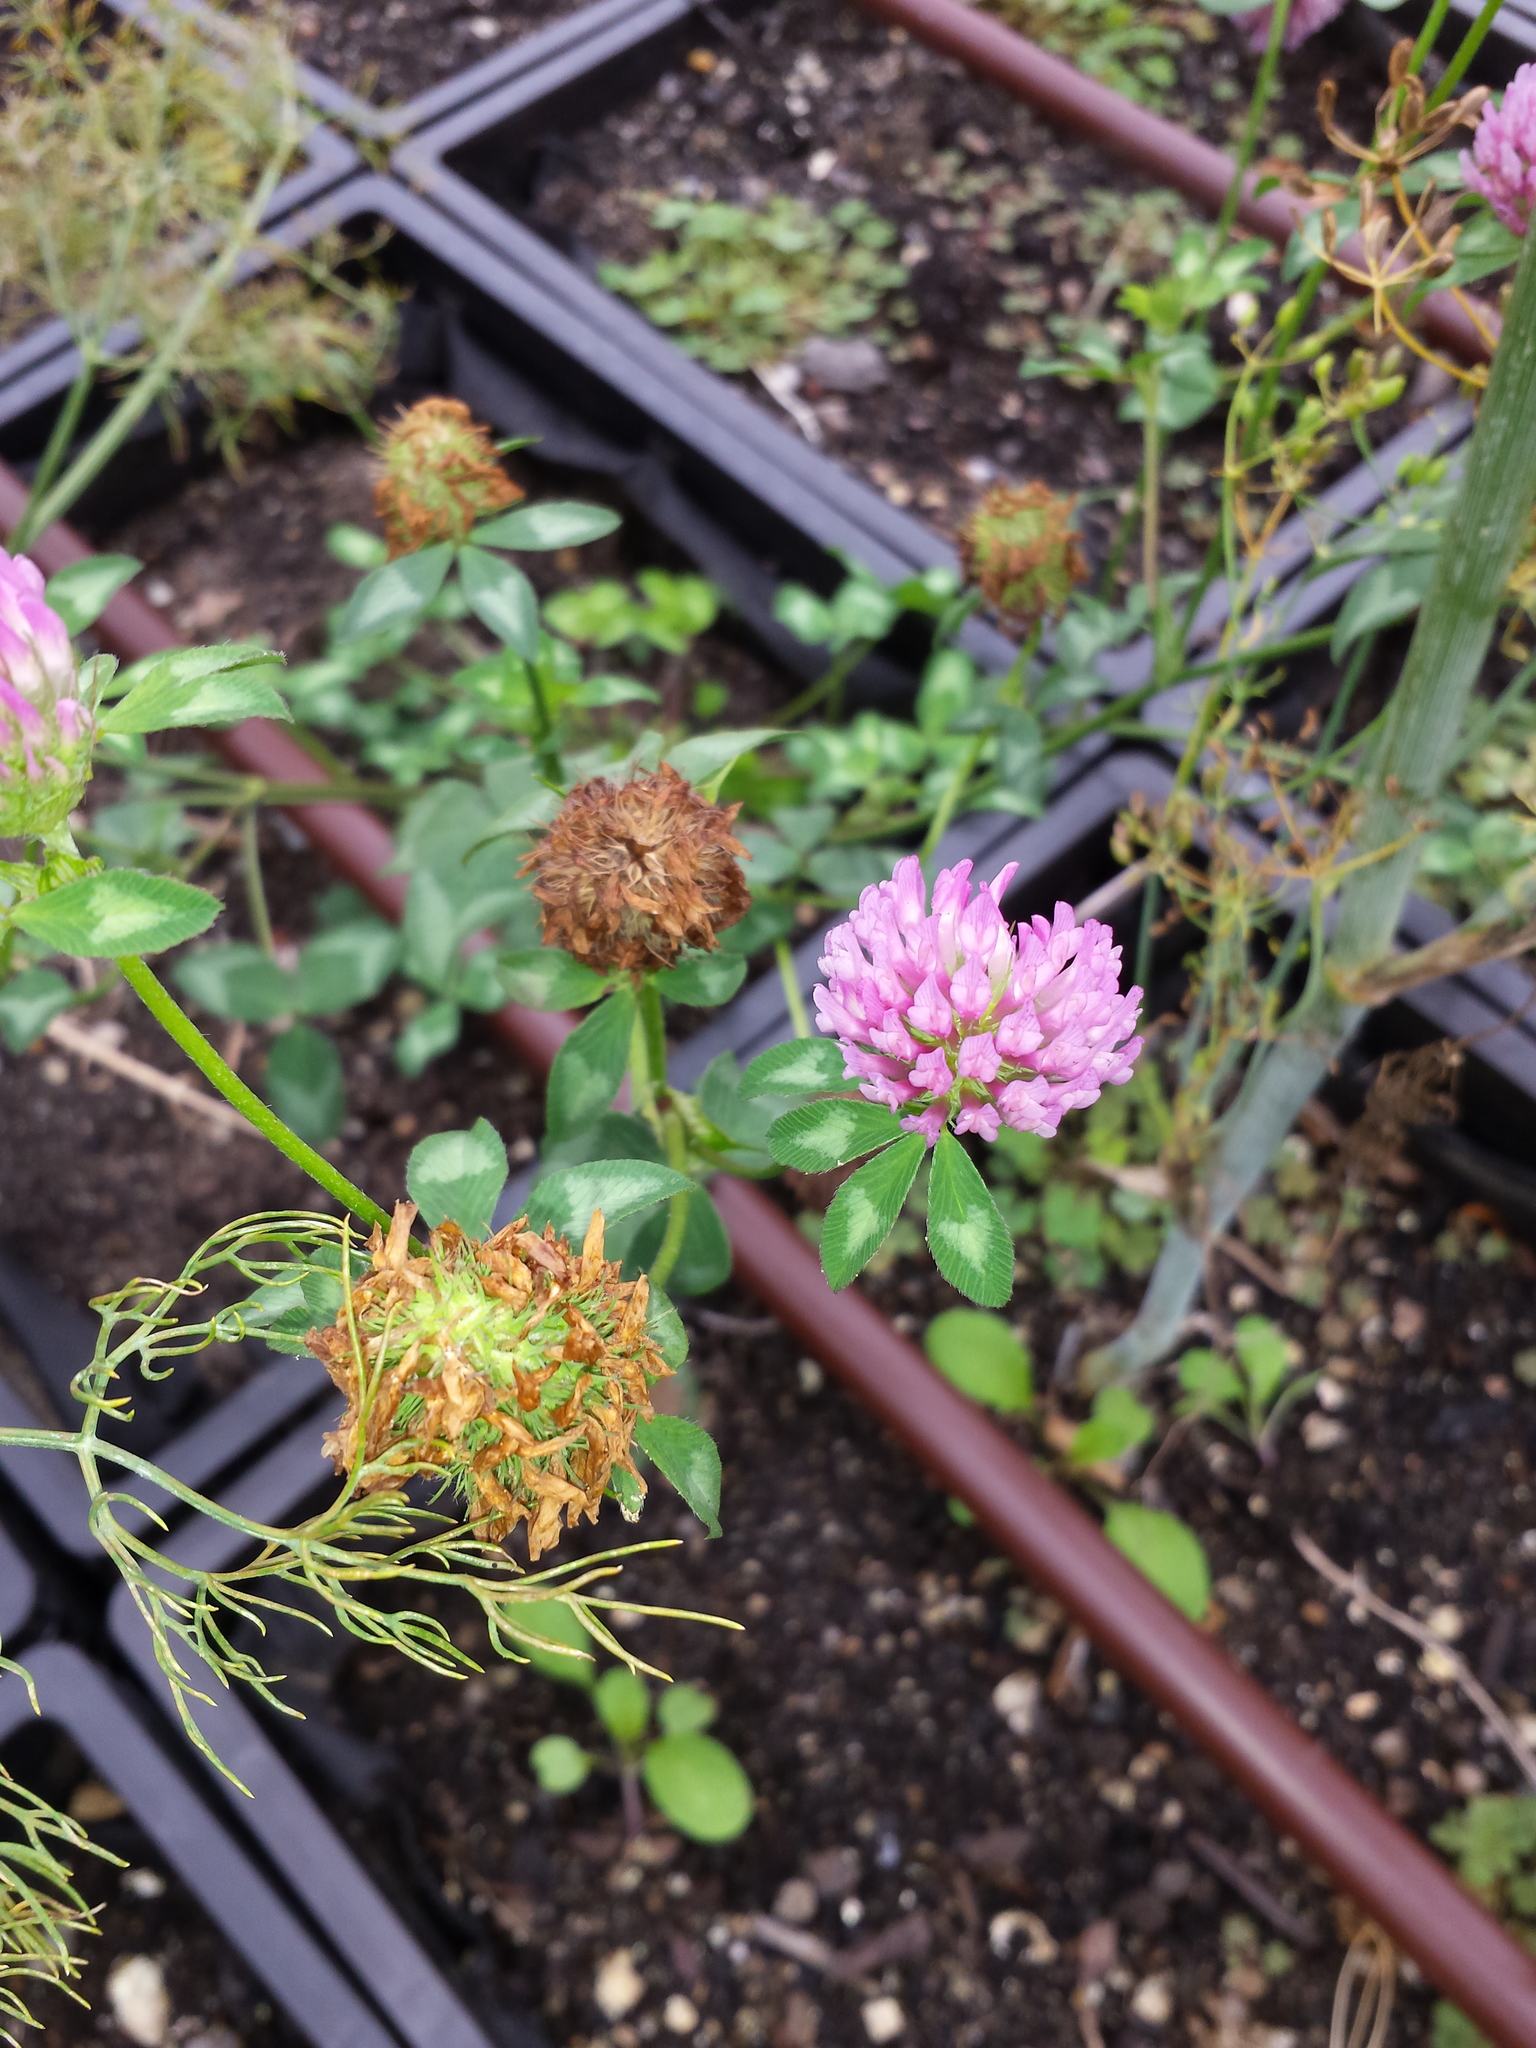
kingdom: Plantae
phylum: Tracheophyta
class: Magnoliopsida
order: Fabales
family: Fabaceae
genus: Trifolium
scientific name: Trifolium pratense
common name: Red clover
